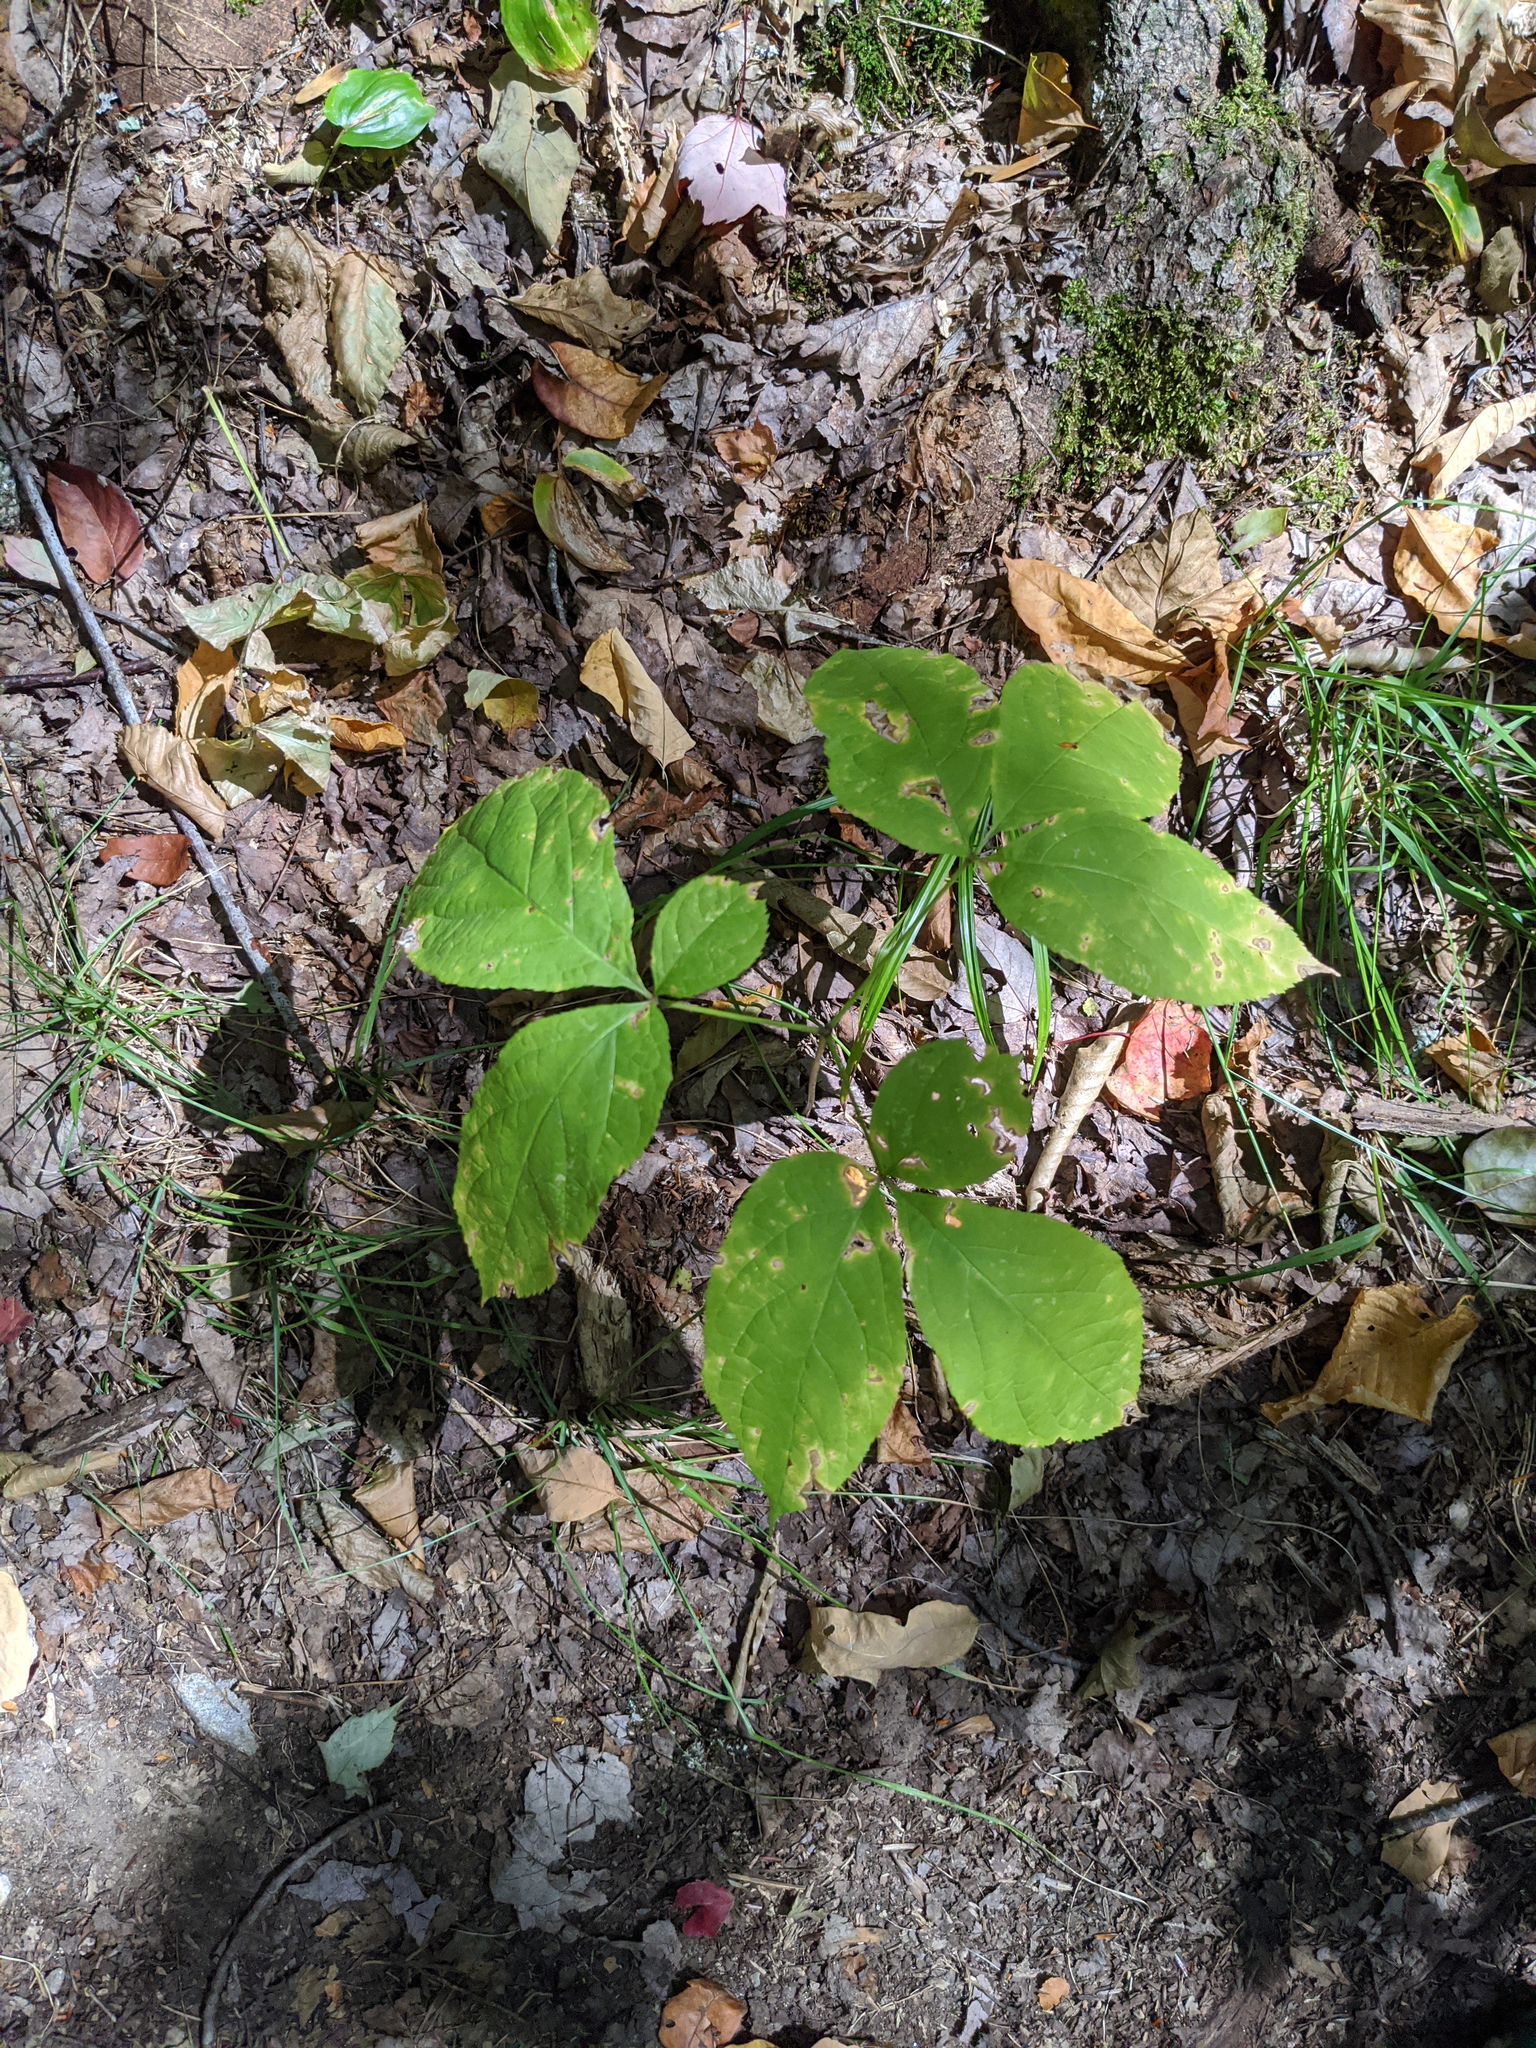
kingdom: Plantae
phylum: Tracheophyta
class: Magnoliopsida
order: Apiales
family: Araliaceae
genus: Aralia
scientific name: Aralia nudicaulis
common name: Wild sarsaparilla
